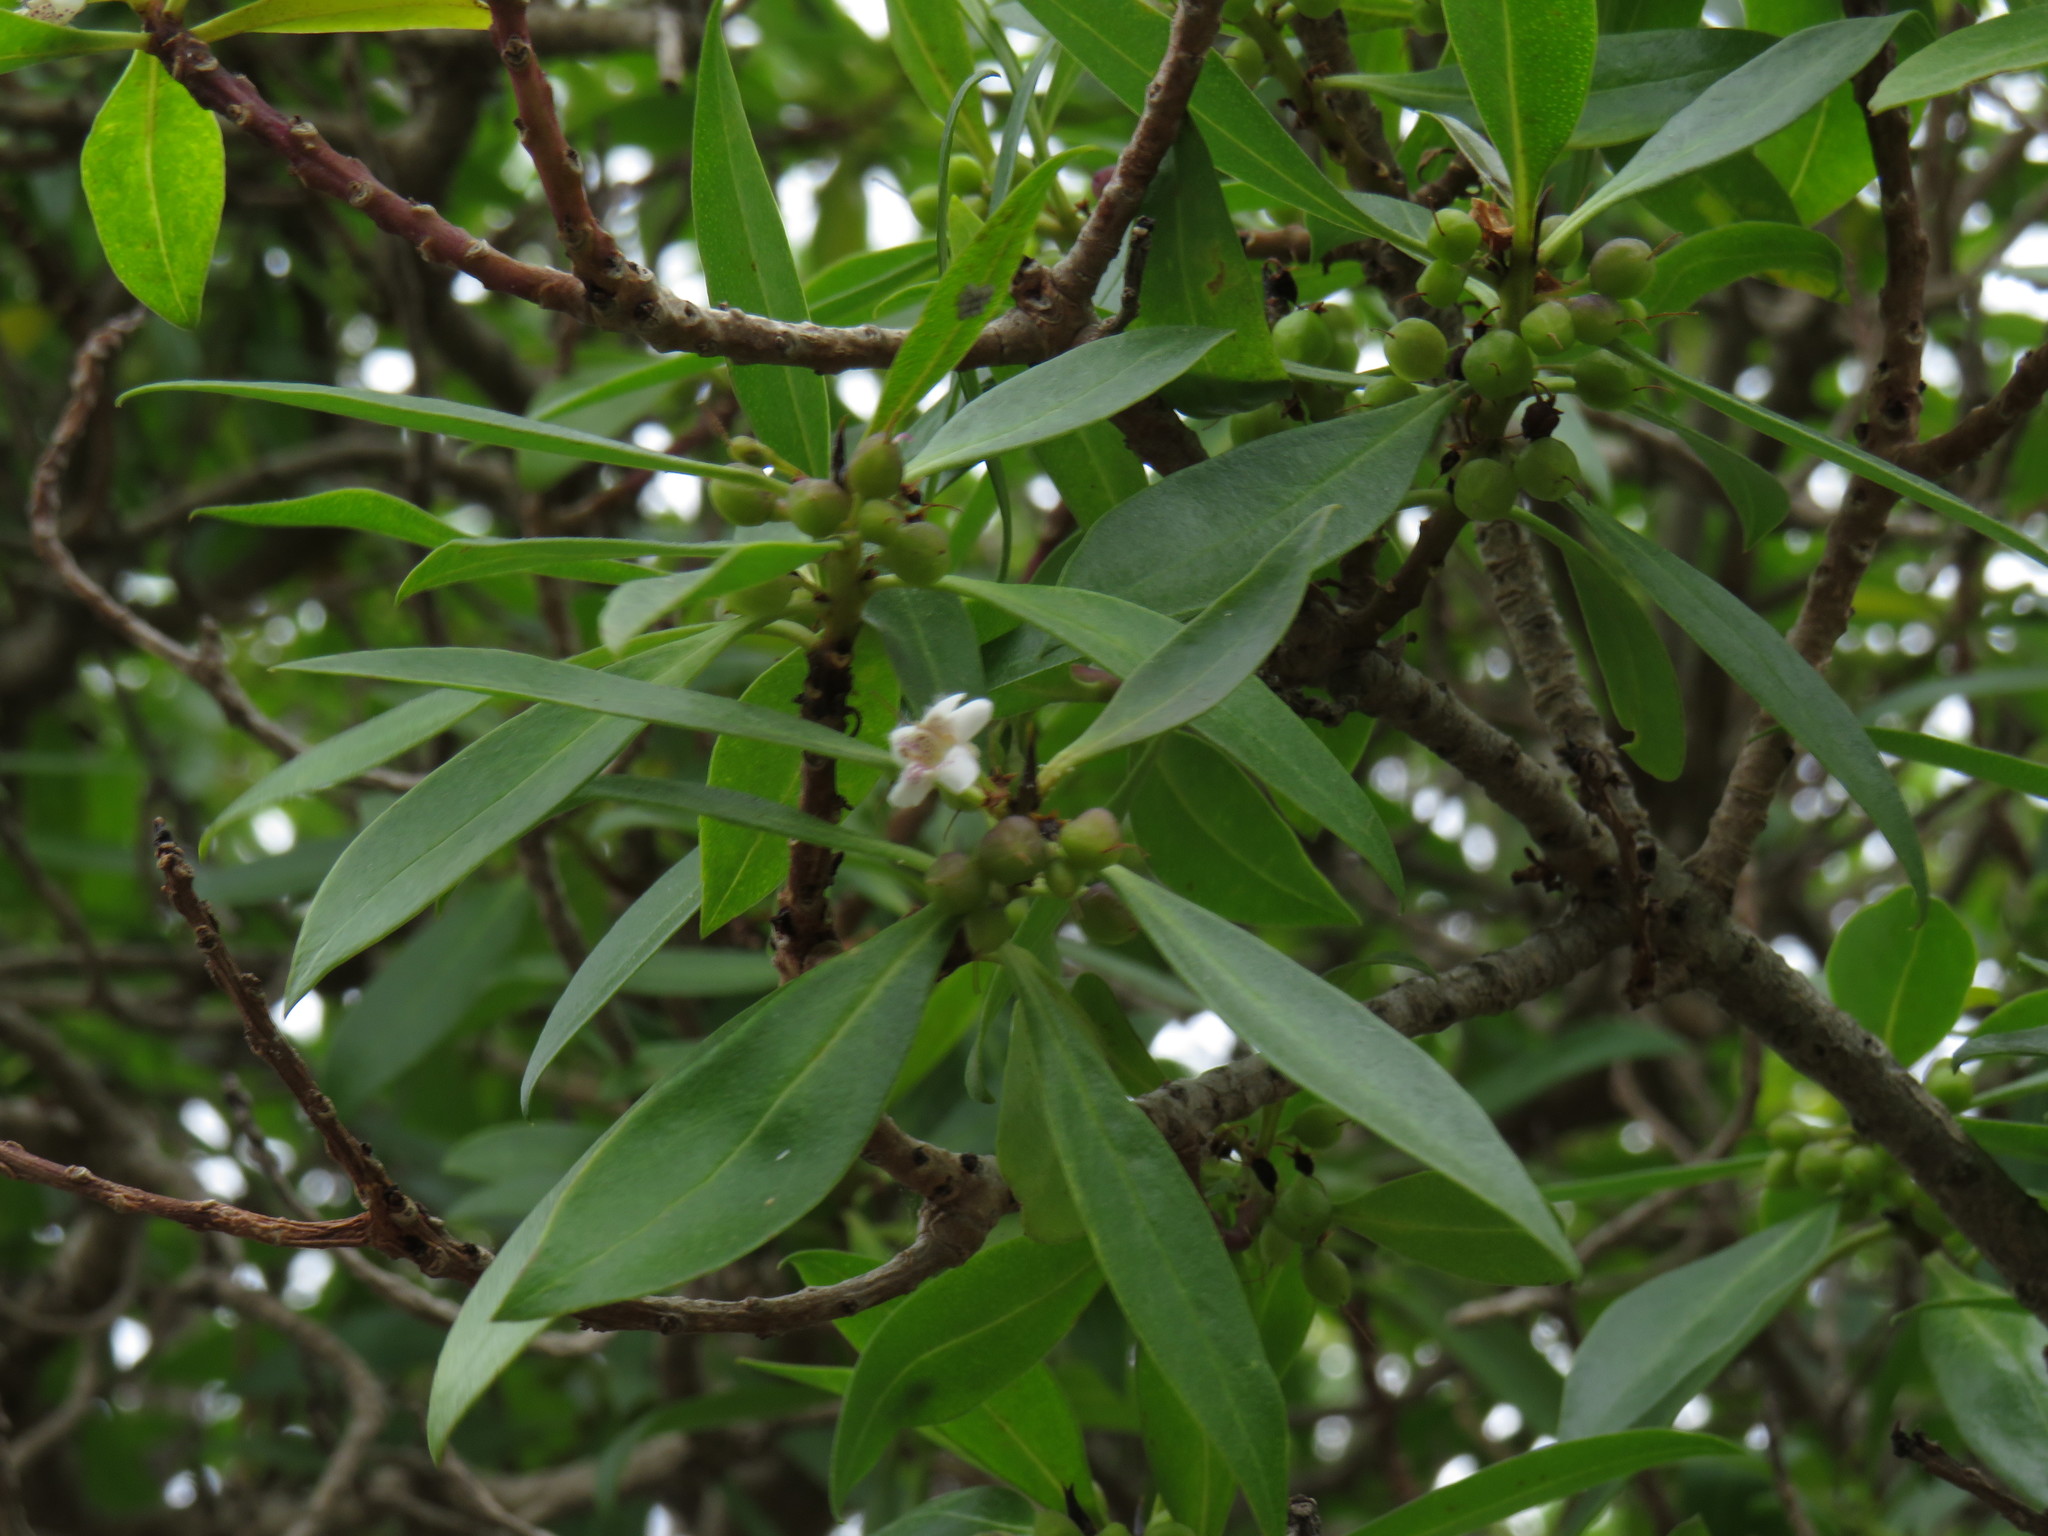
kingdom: Plantae
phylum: Tracheophyta
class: Magnoliopsida
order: Lamiales
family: Scrophulariaceae
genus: Myoporum
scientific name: Myoporum montanum
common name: Waterbush
